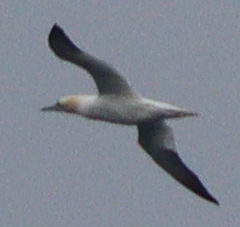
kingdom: Animalia
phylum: Chordata
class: Aves
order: Suliformes
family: Sulidae
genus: Morus
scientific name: Morus bassanus
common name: Northern gannet
